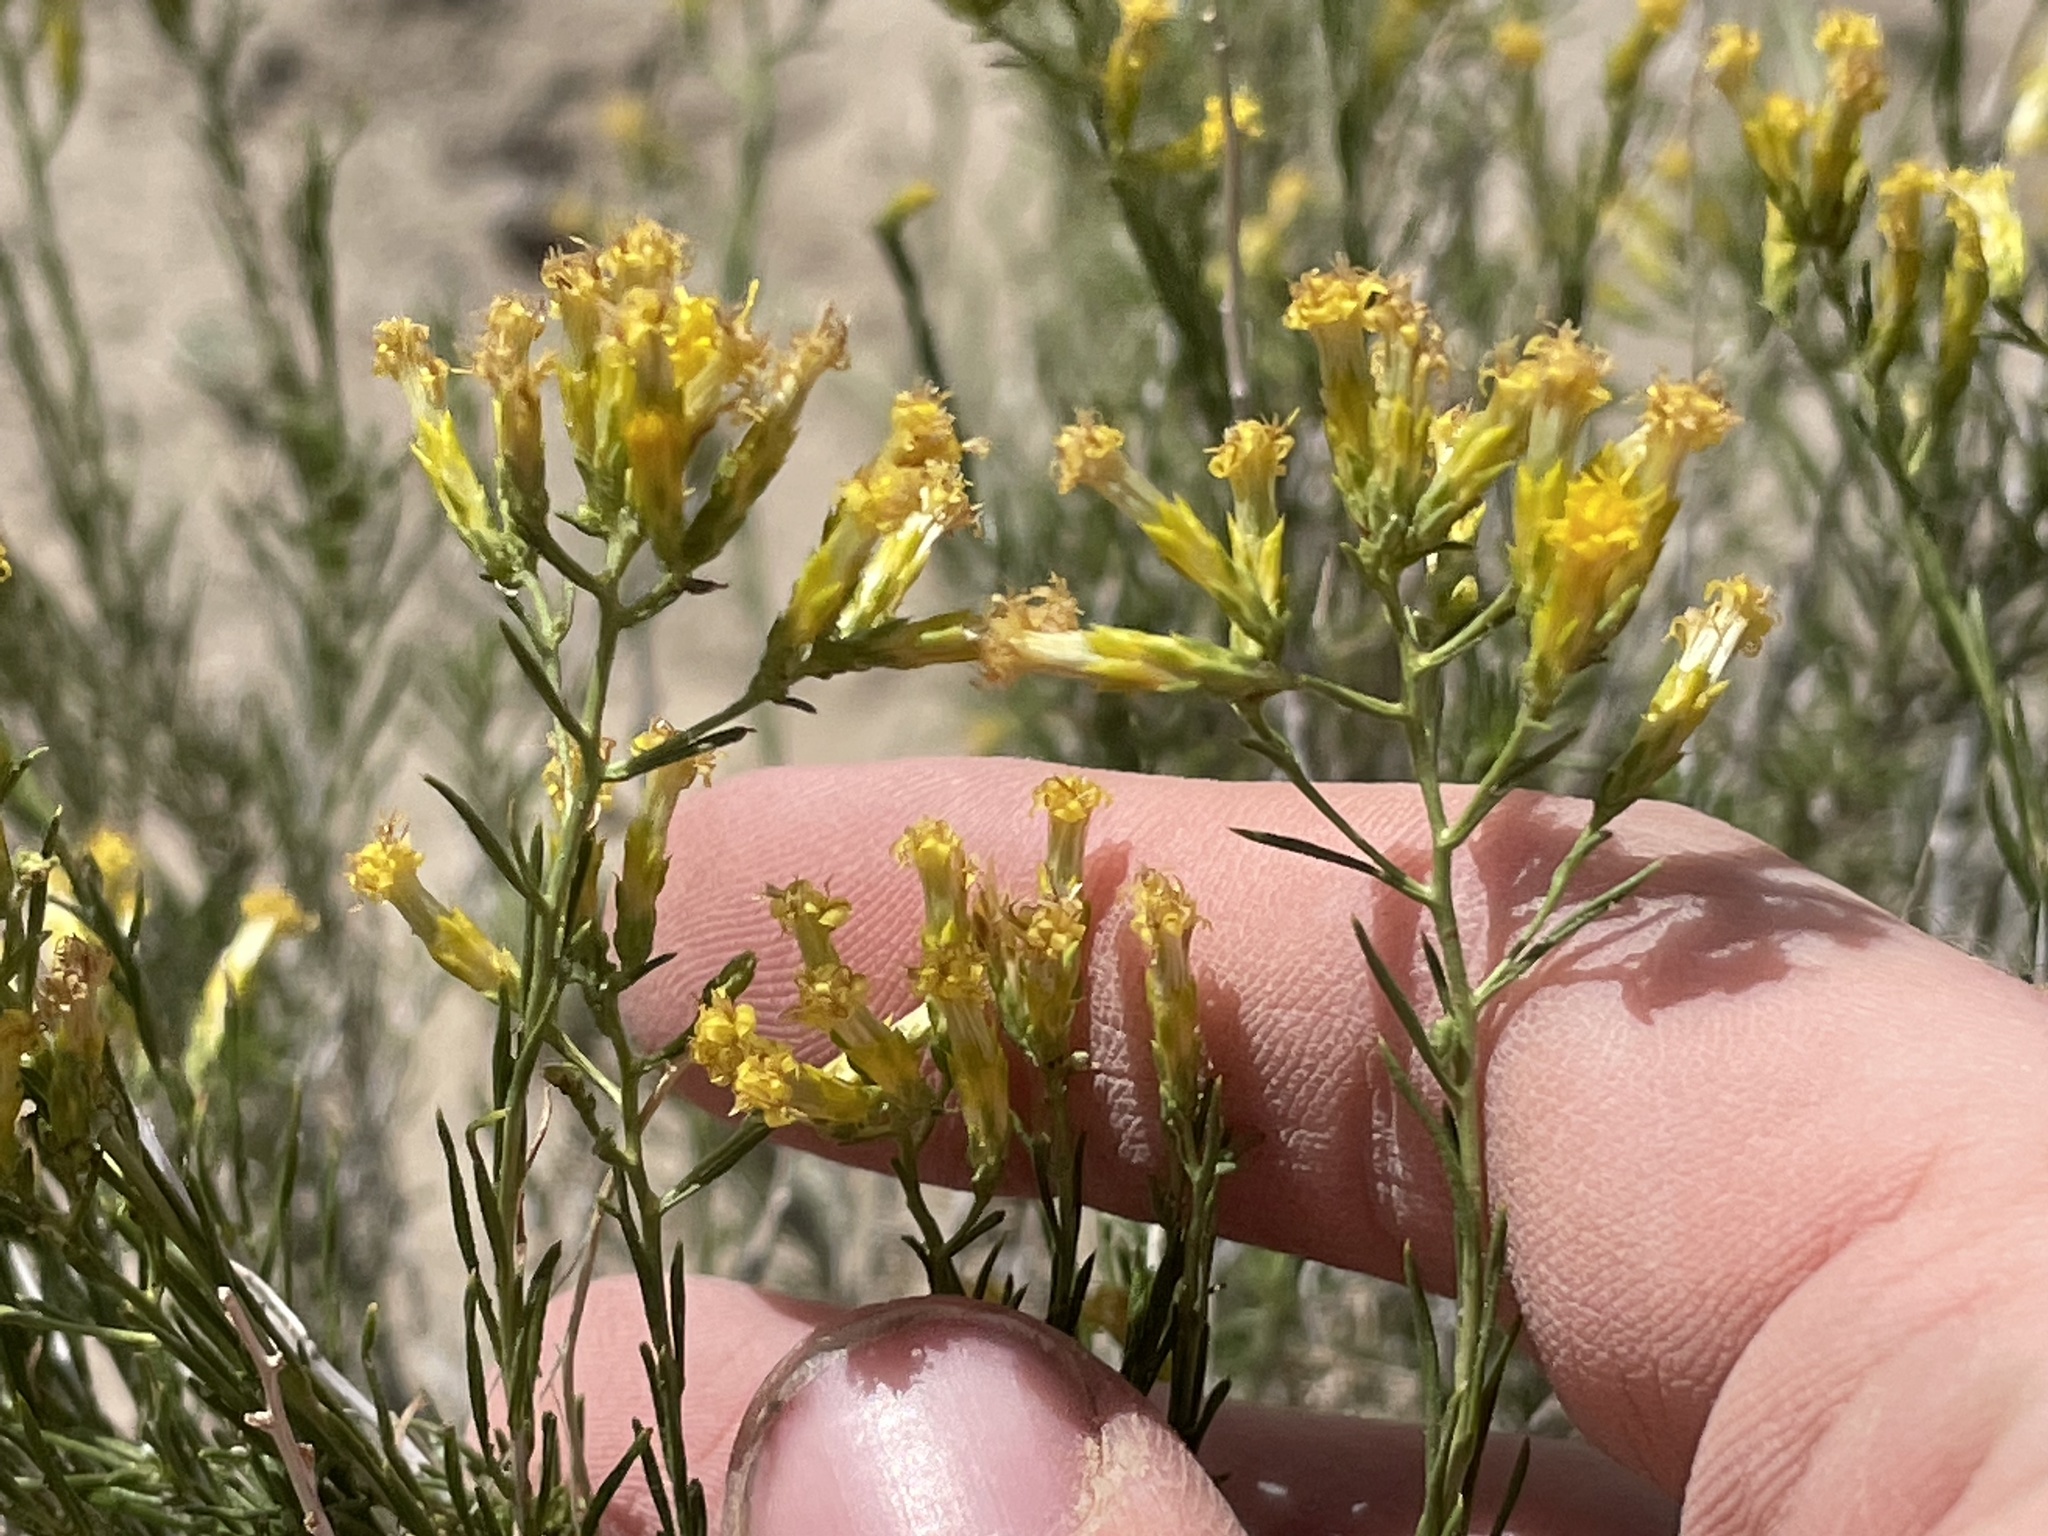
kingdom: Plantae
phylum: Tracheophyta
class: Magnoliopsida
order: Asterales
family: Asteraceae
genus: Chrysothamnus
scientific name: Chrysothamnus greenei
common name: Greene's rabbitbrush
